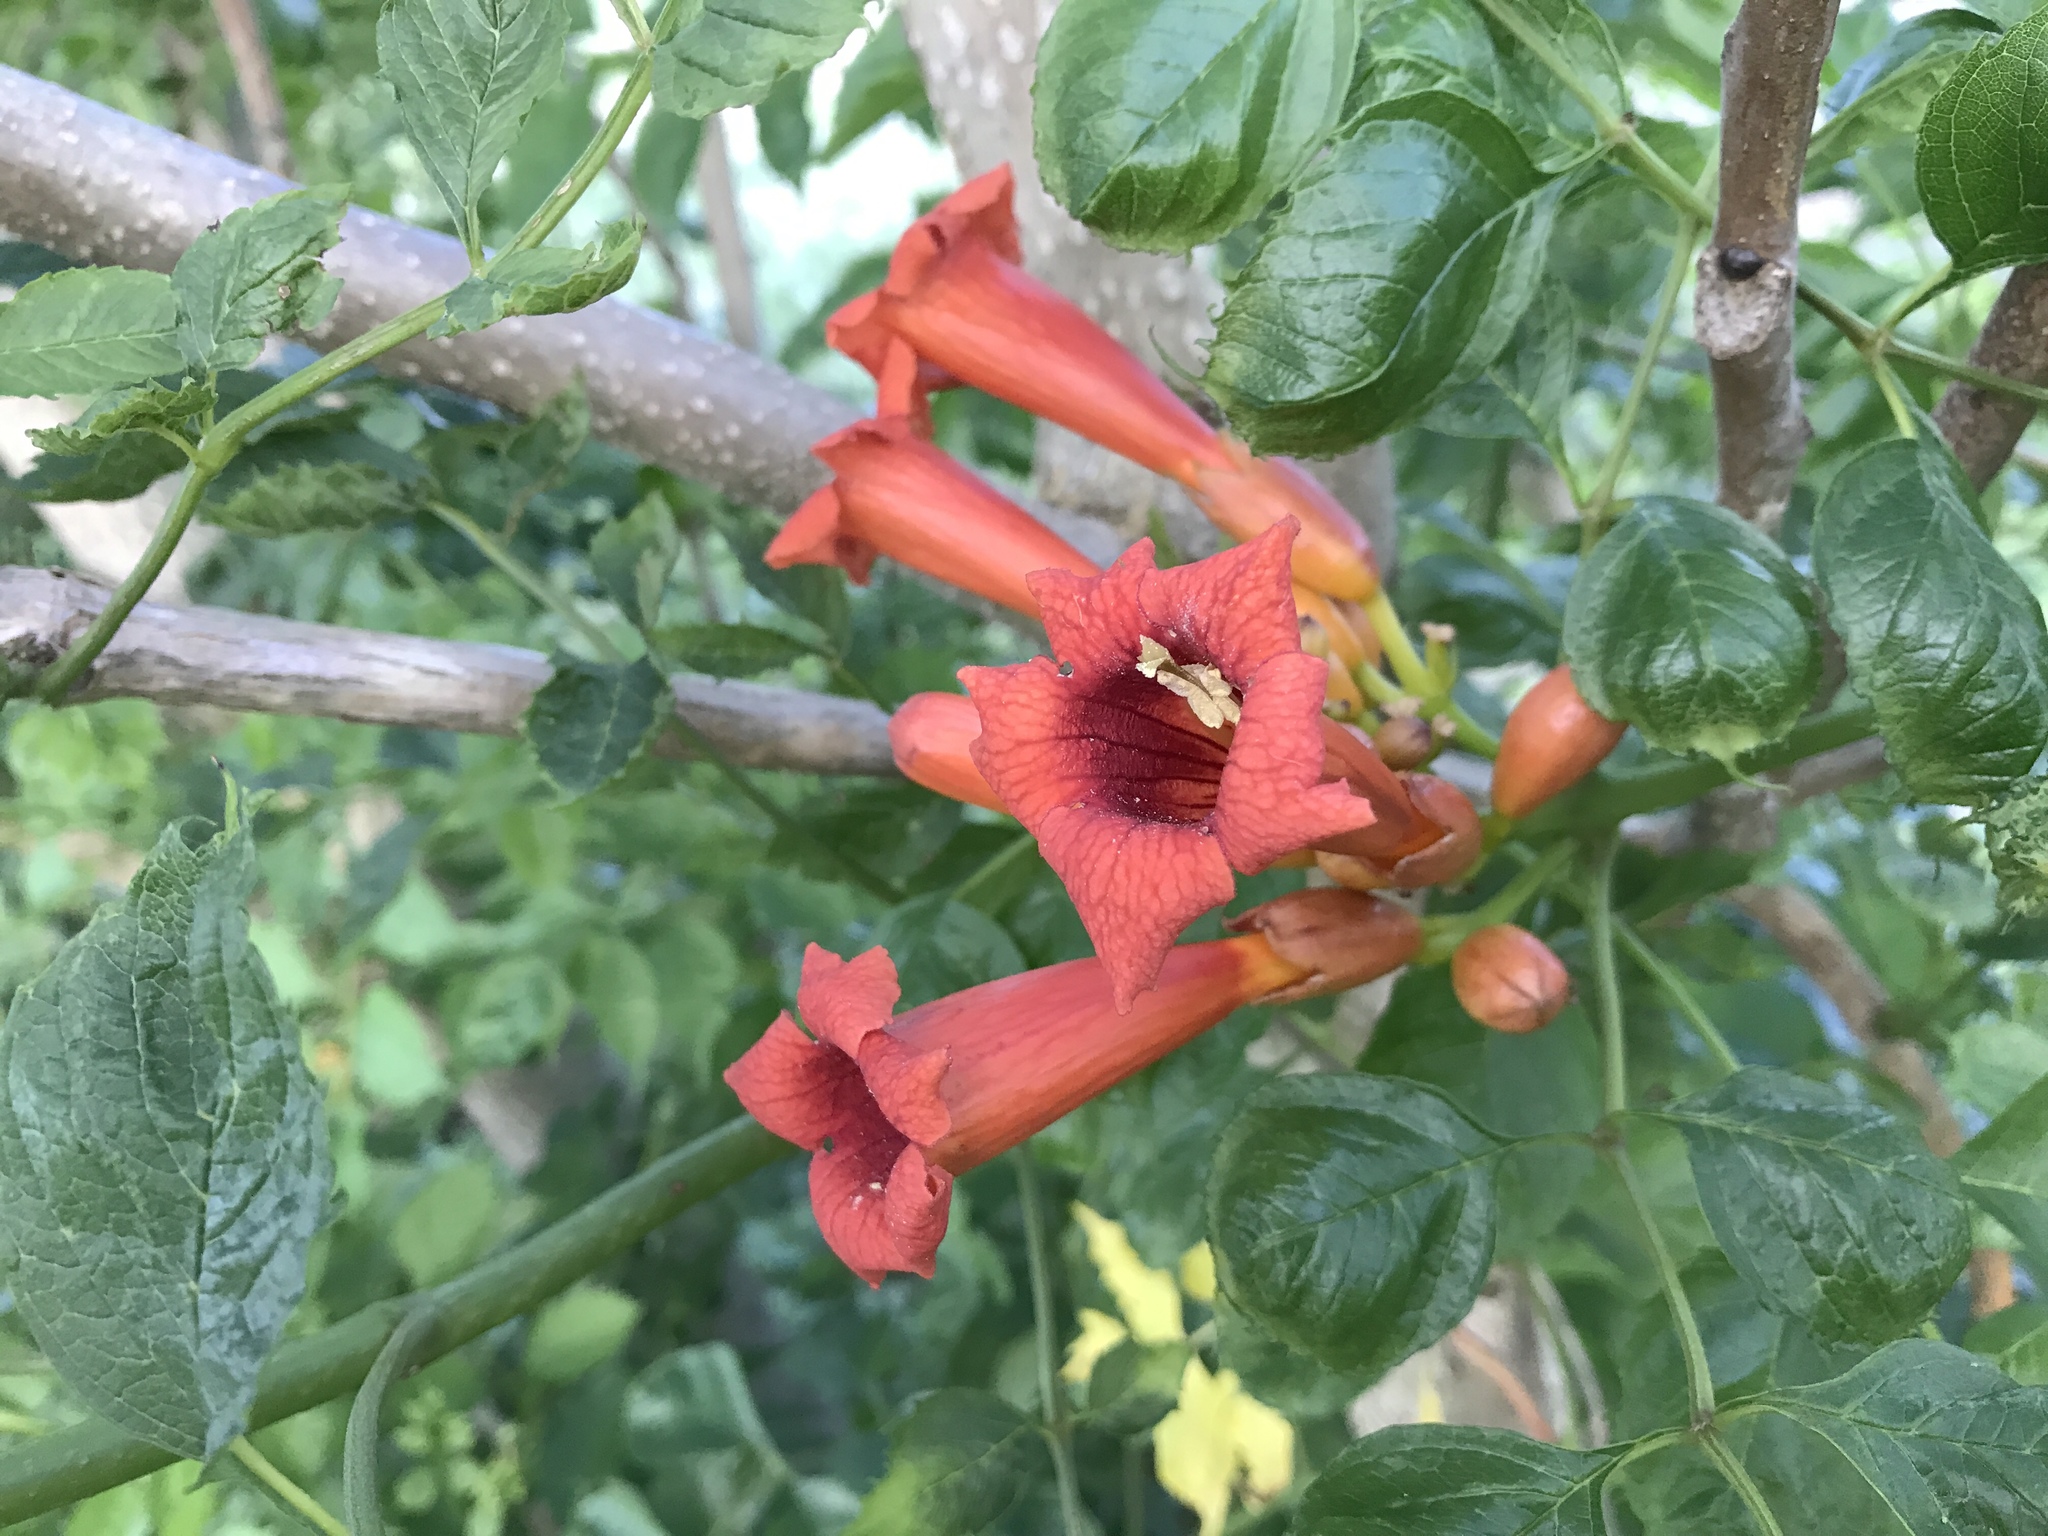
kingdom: Plantae
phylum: Tracheophyta
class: Magnoliopsida
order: Lamiales
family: Bignoniaceae
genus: Campsis
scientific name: Campsis radicans
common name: Trumpet-creeper
